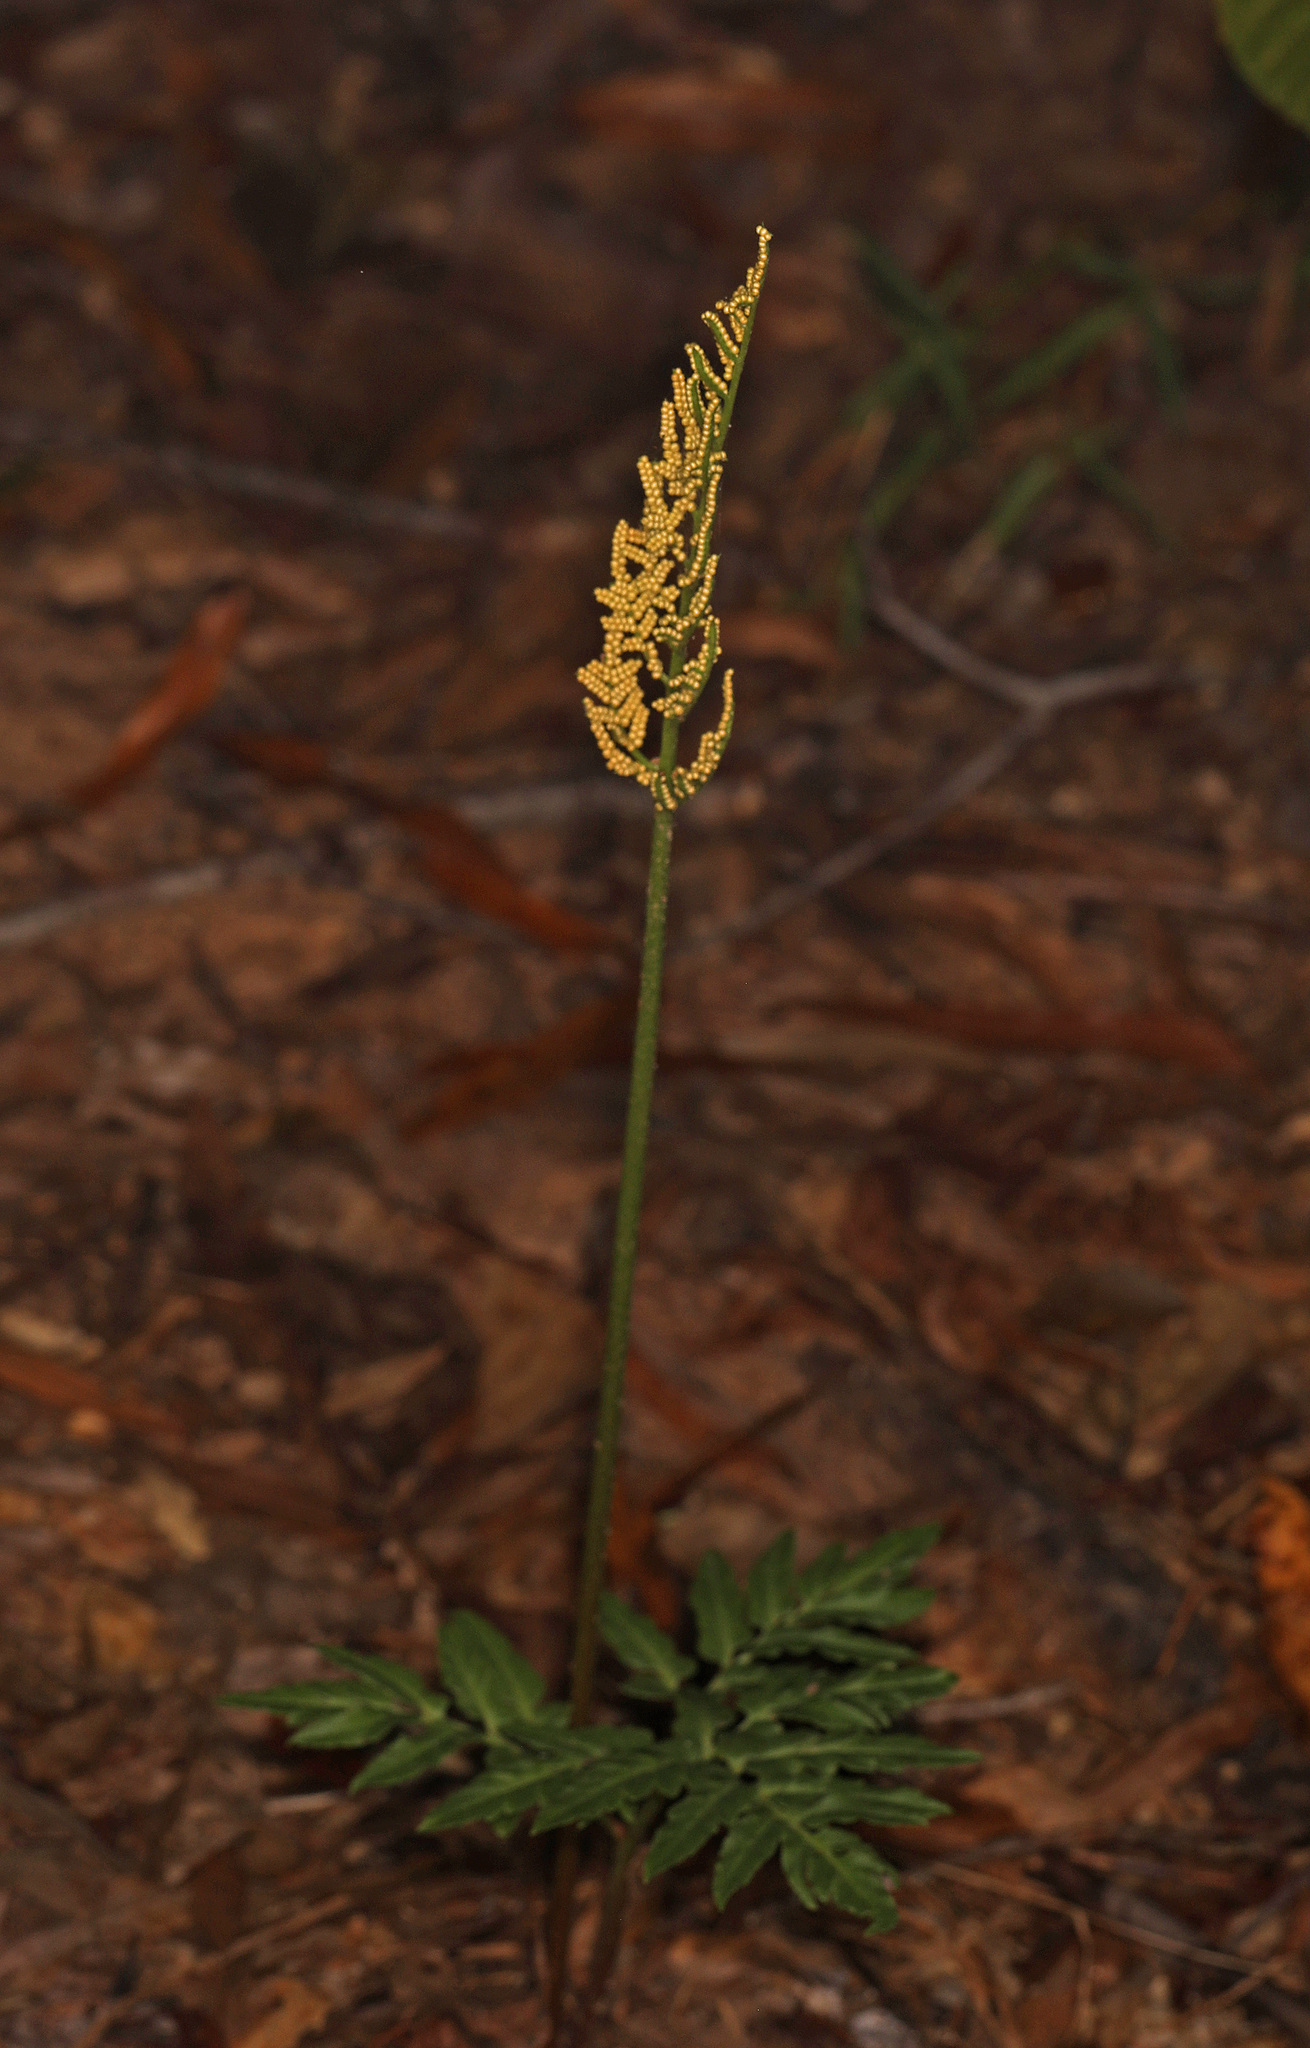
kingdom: Plantae
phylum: Tracheophyta
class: Polypodiopsida
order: Ophioglossales
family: Ophioglossaceae
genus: Botrypus
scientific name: Botrypus virginianus
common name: Common grapefern
